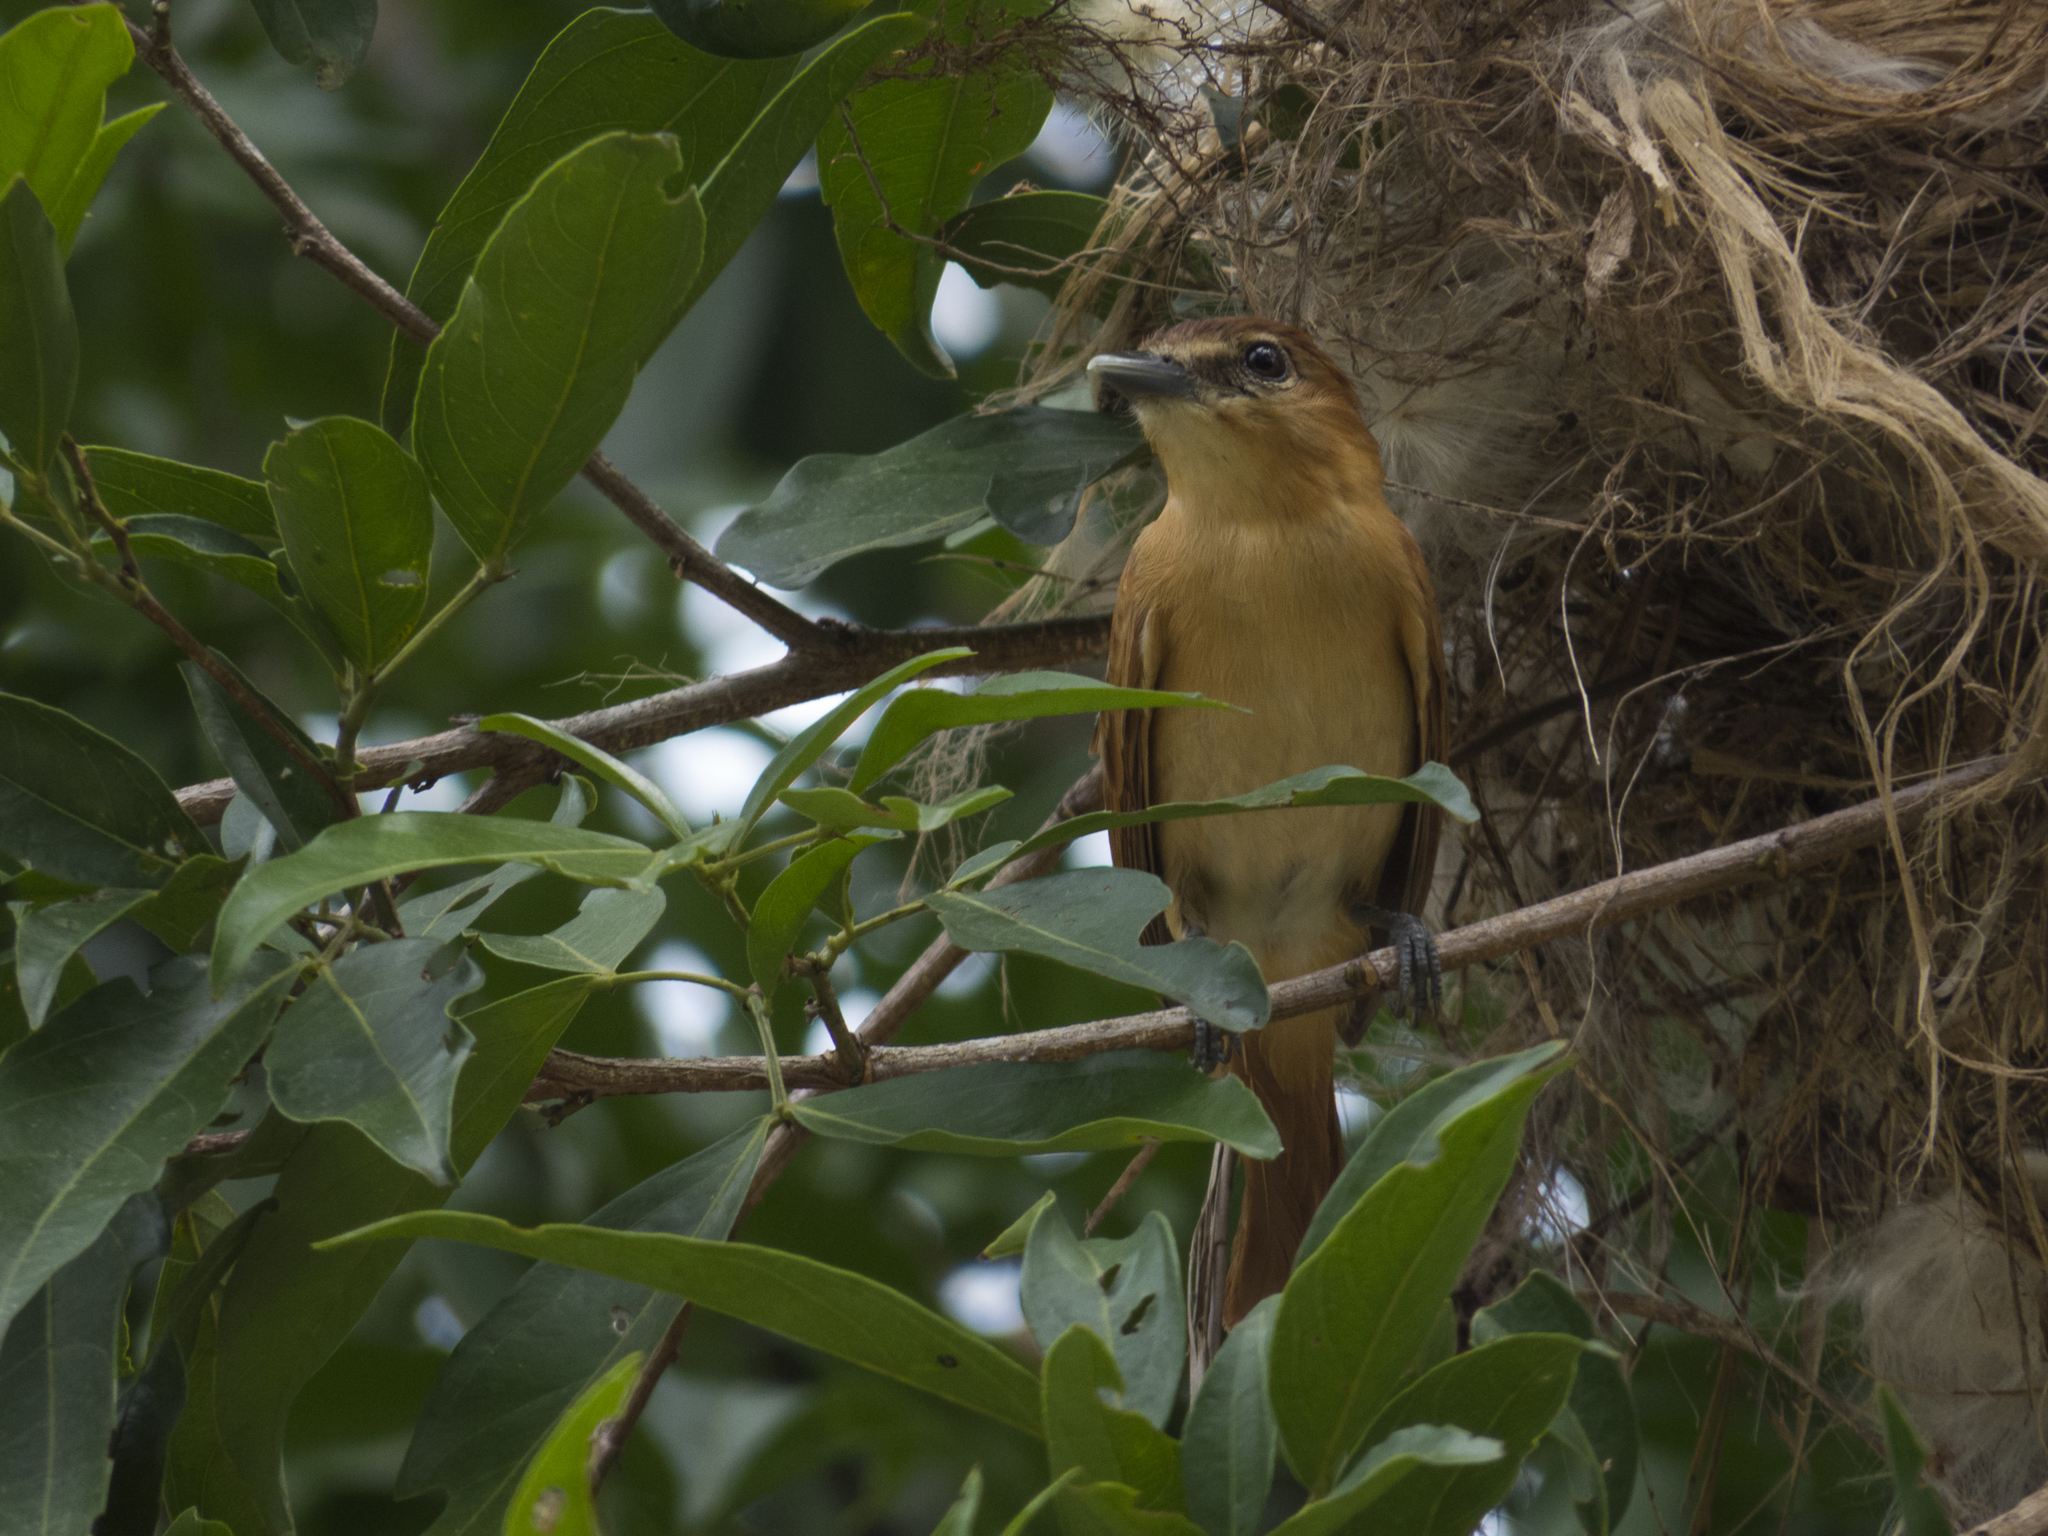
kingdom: Animalia
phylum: Chordata
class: Aves
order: Passeriformes
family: Cotingidae
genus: Pachyramphus
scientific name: Pachyramphus cinnamomeus
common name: Cinnamon becard
